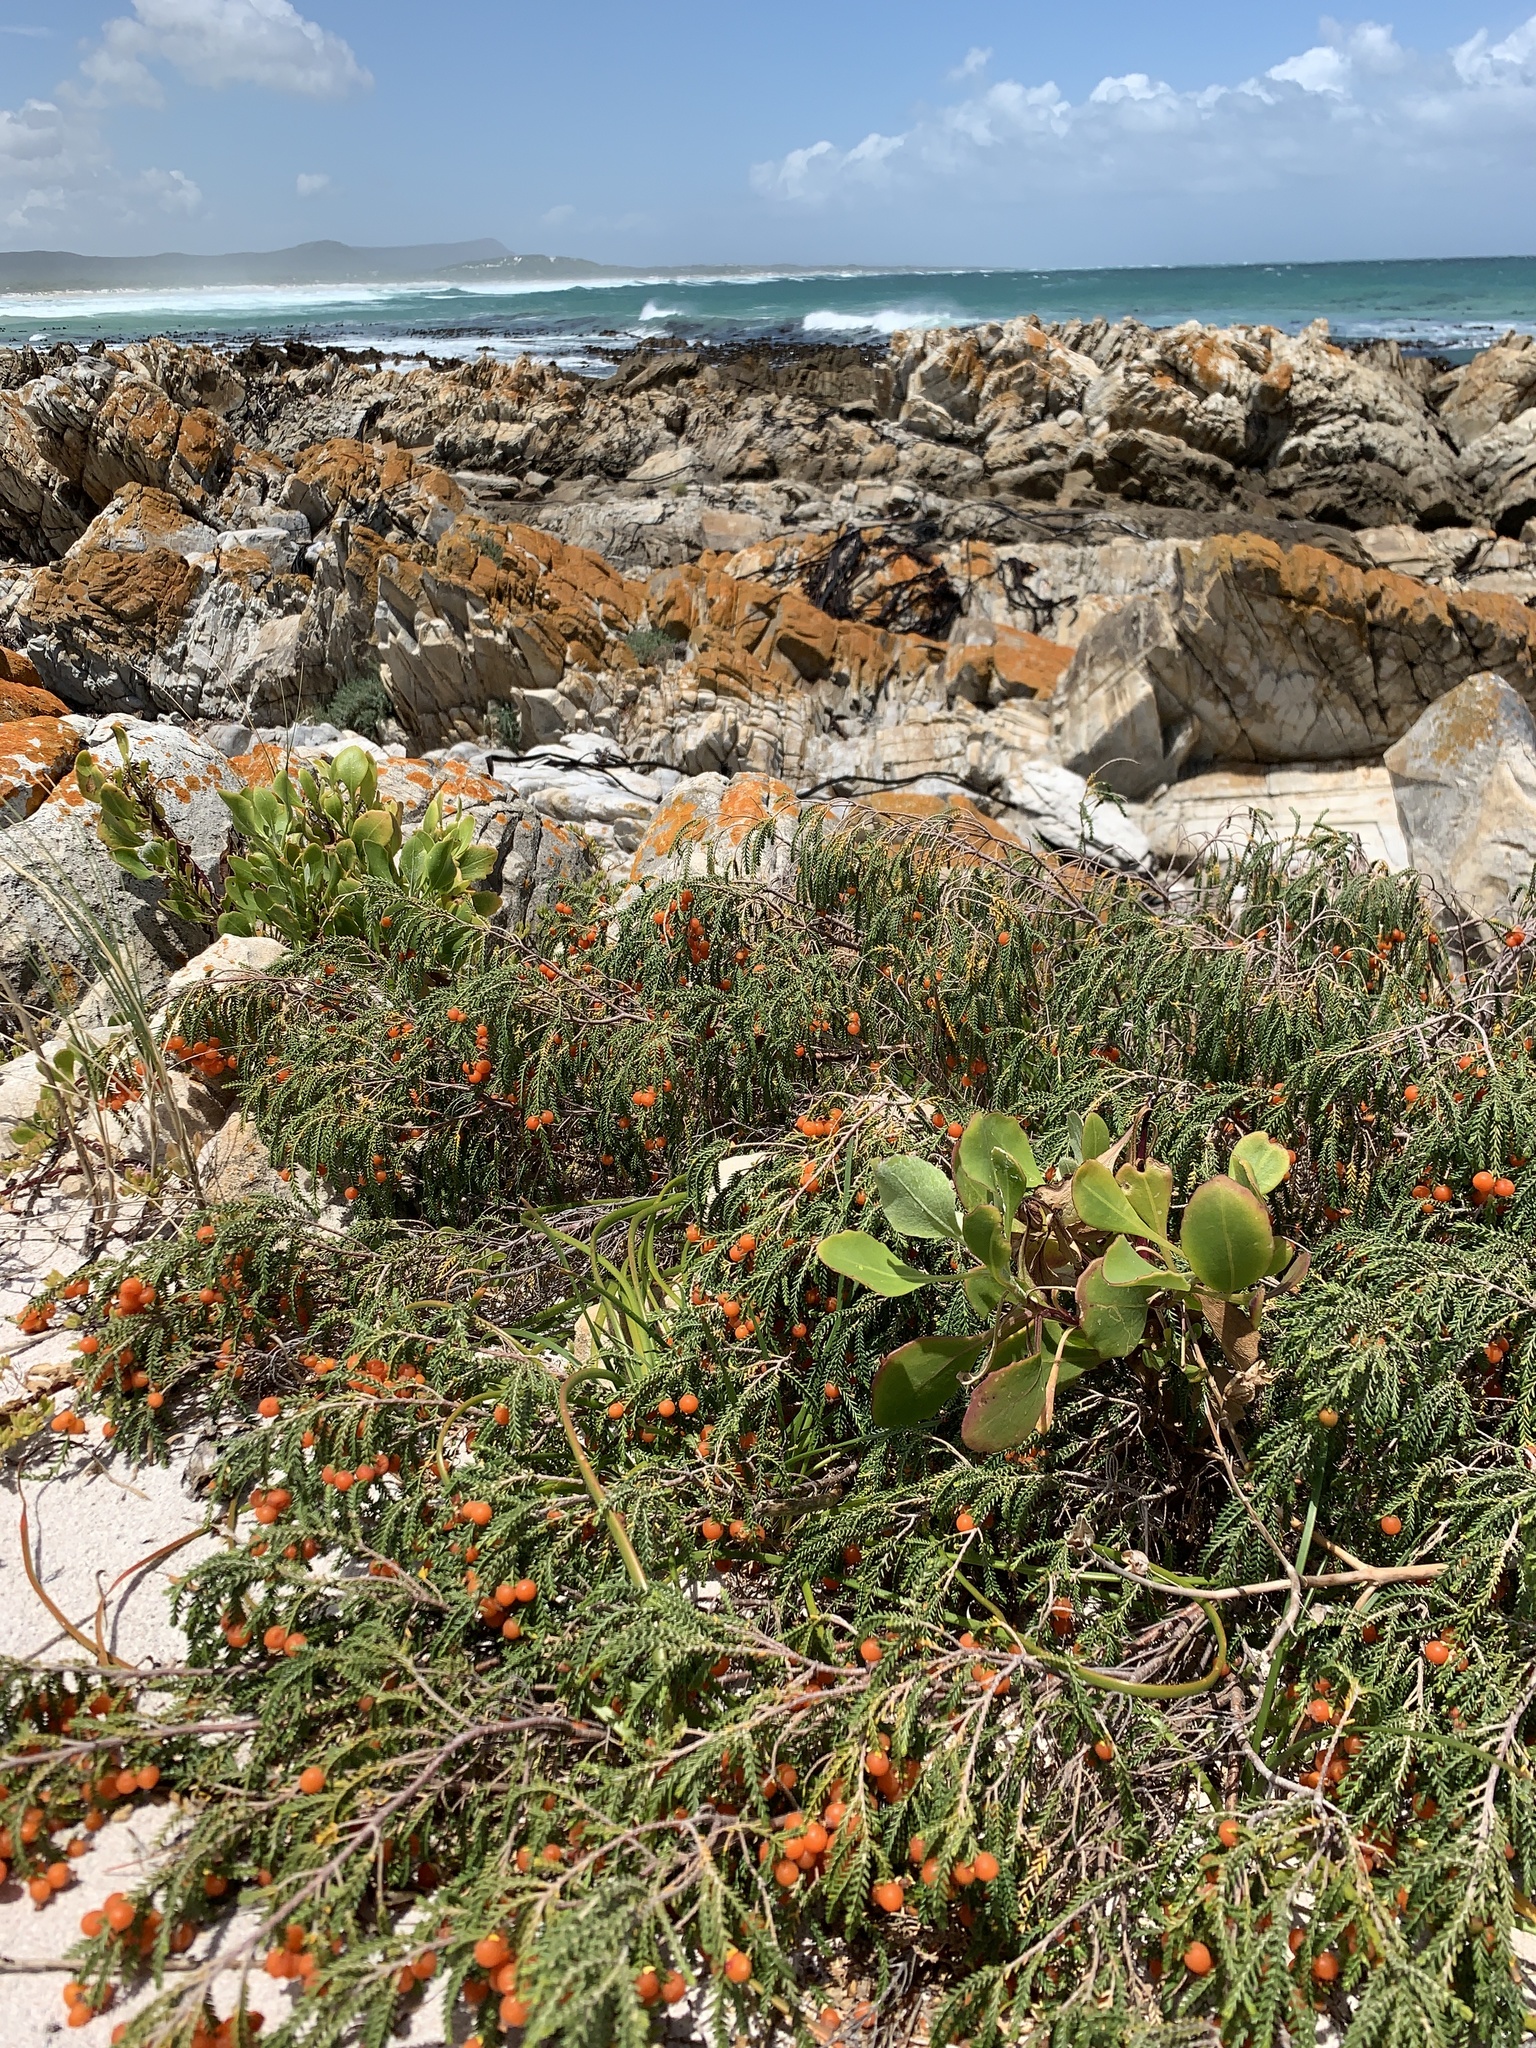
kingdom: Plantae
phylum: Tracheophyta
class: Magnoliopsida
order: Malvales
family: Thymelaeaceae
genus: Passerina
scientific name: Passerina ericoides
